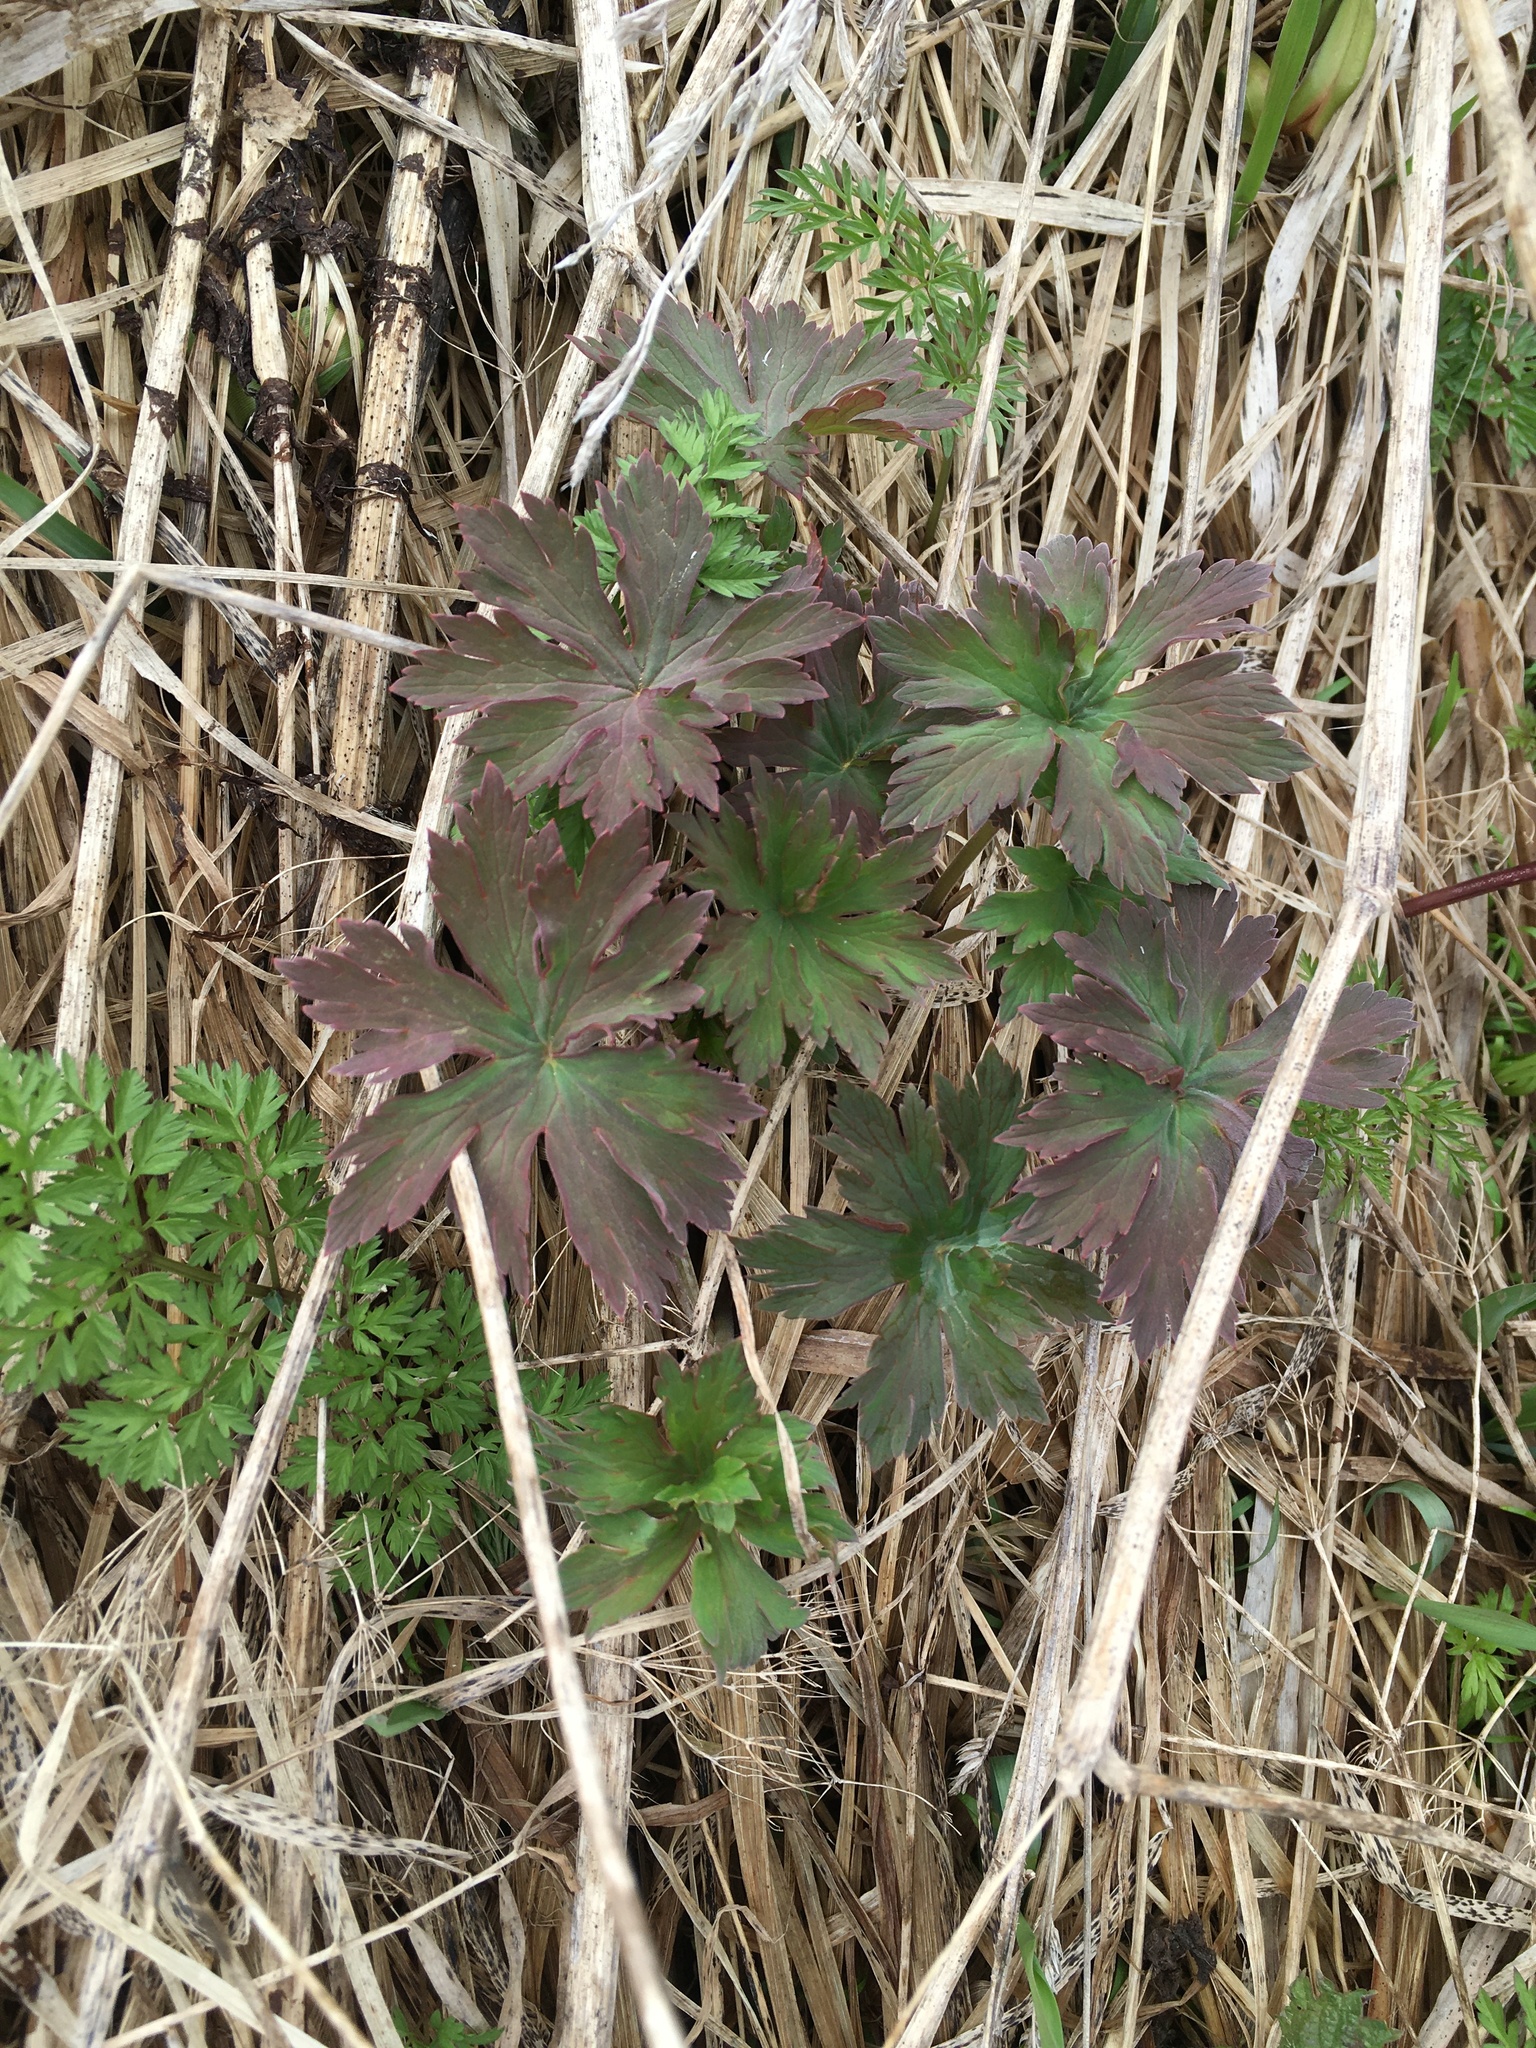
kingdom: Plantae
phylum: Tracheophyta
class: Magnoliopsida
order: Geraniales
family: Geraniaceae
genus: Geranium
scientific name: Geranium pratense
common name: Meadow crane's-bill
